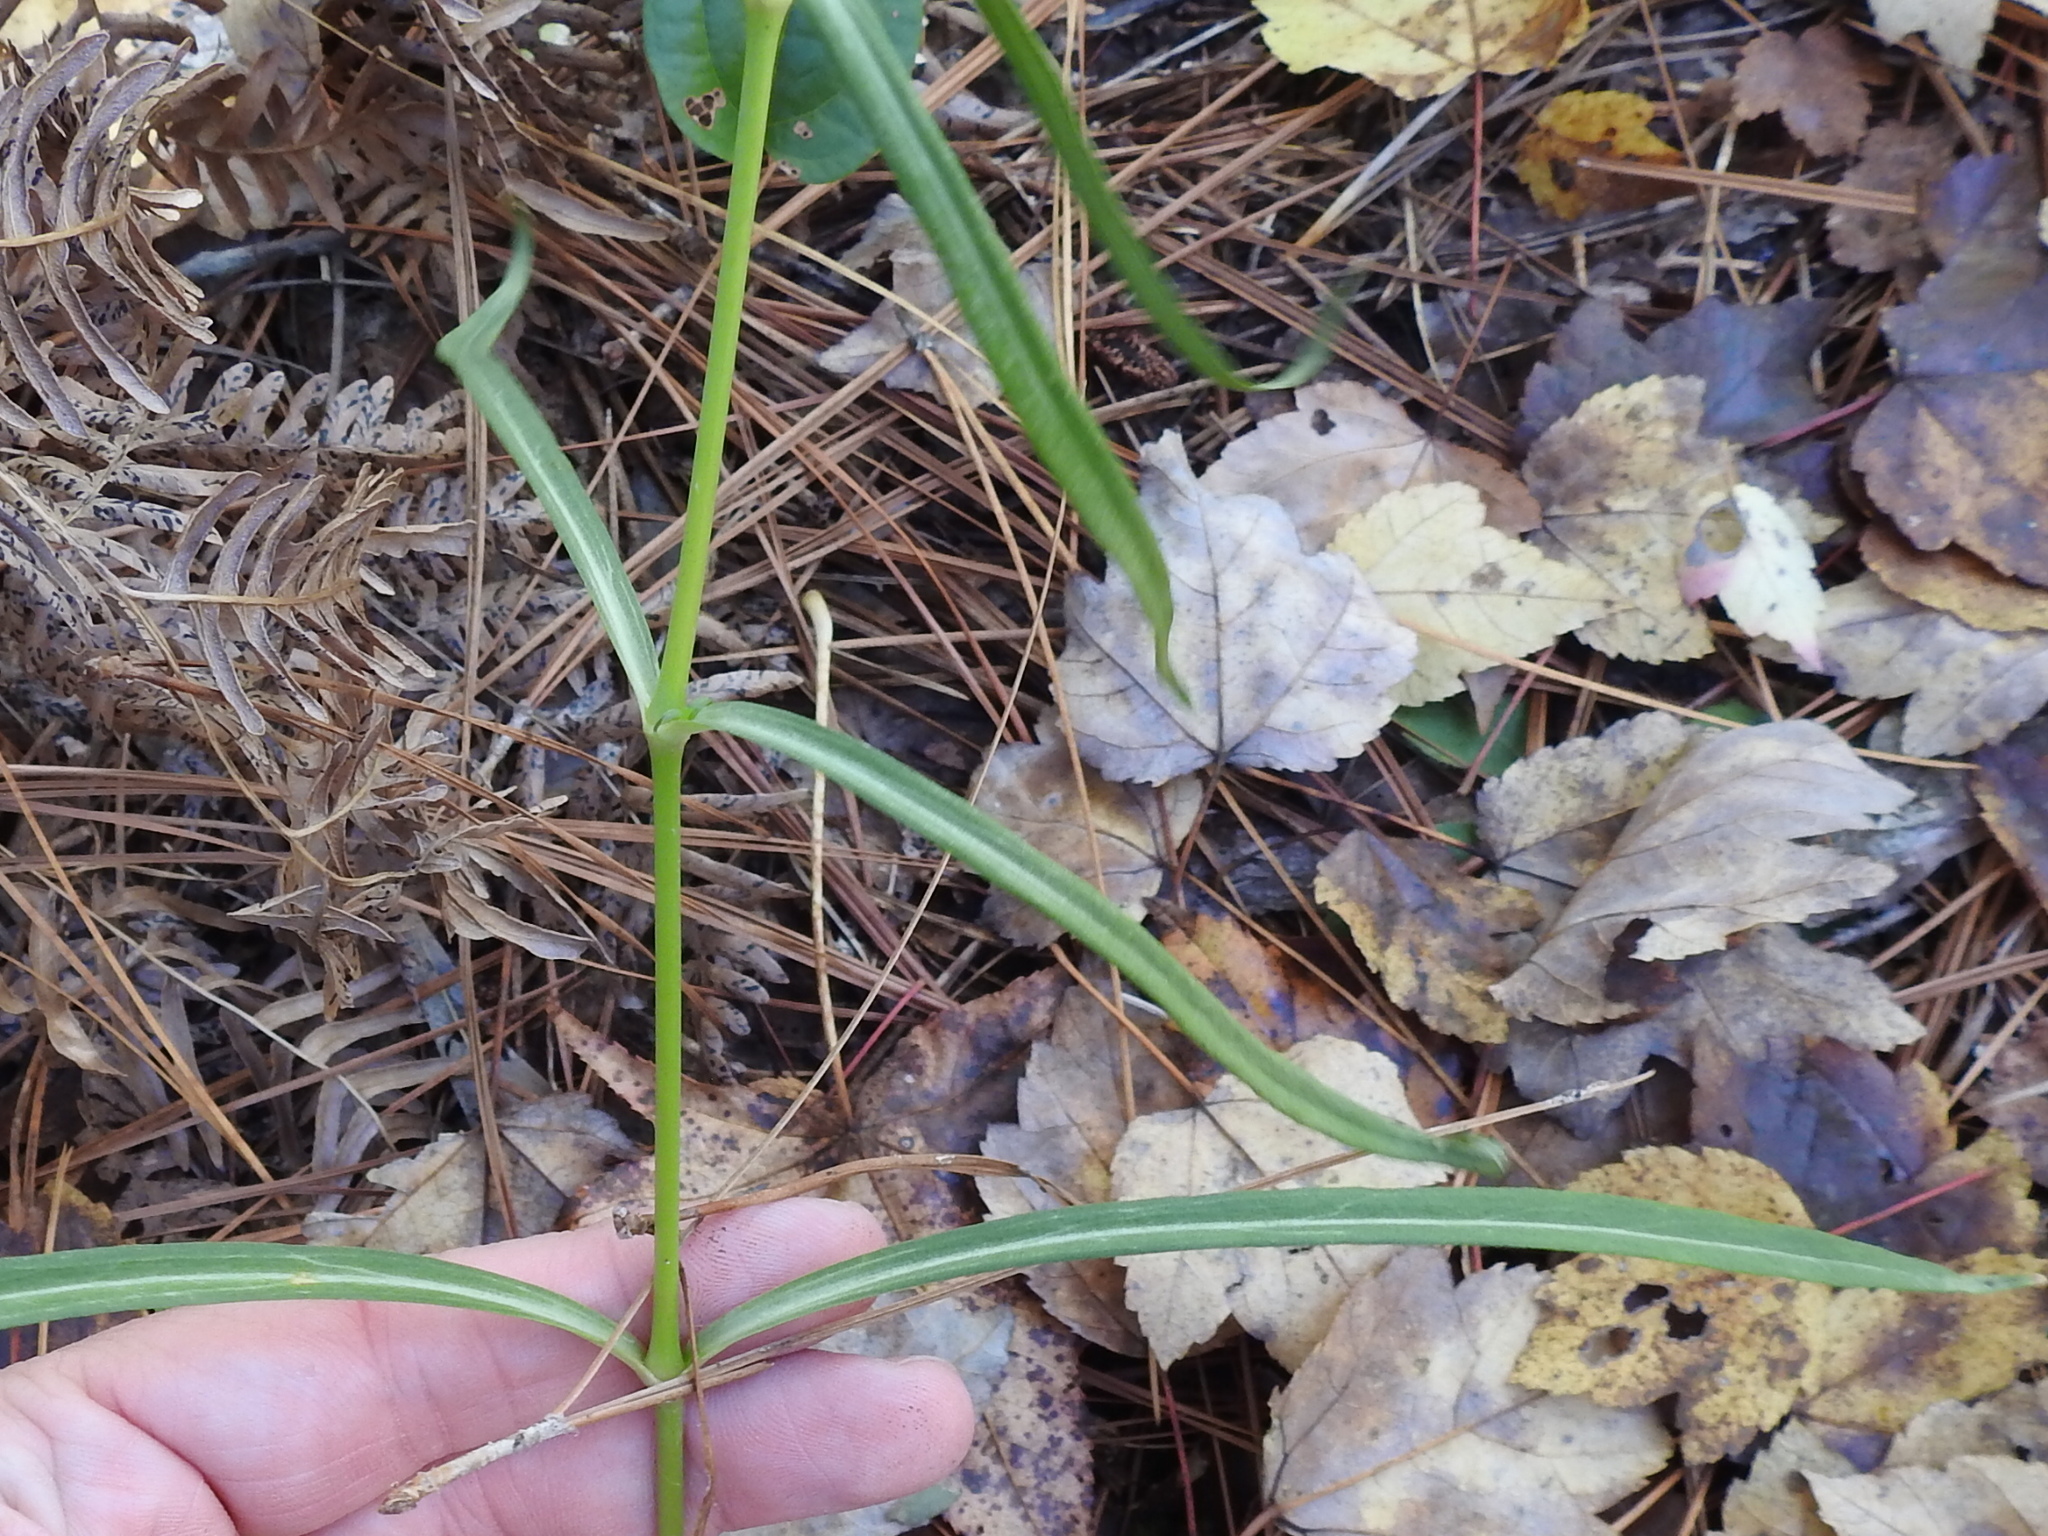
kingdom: Plantae
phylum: Tracheophyta
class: Magnoliopsida
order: Caryophyllales
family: Caryophyllaceae
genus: Silene
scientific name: Silene subciliata
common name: Prairie fire-pink
